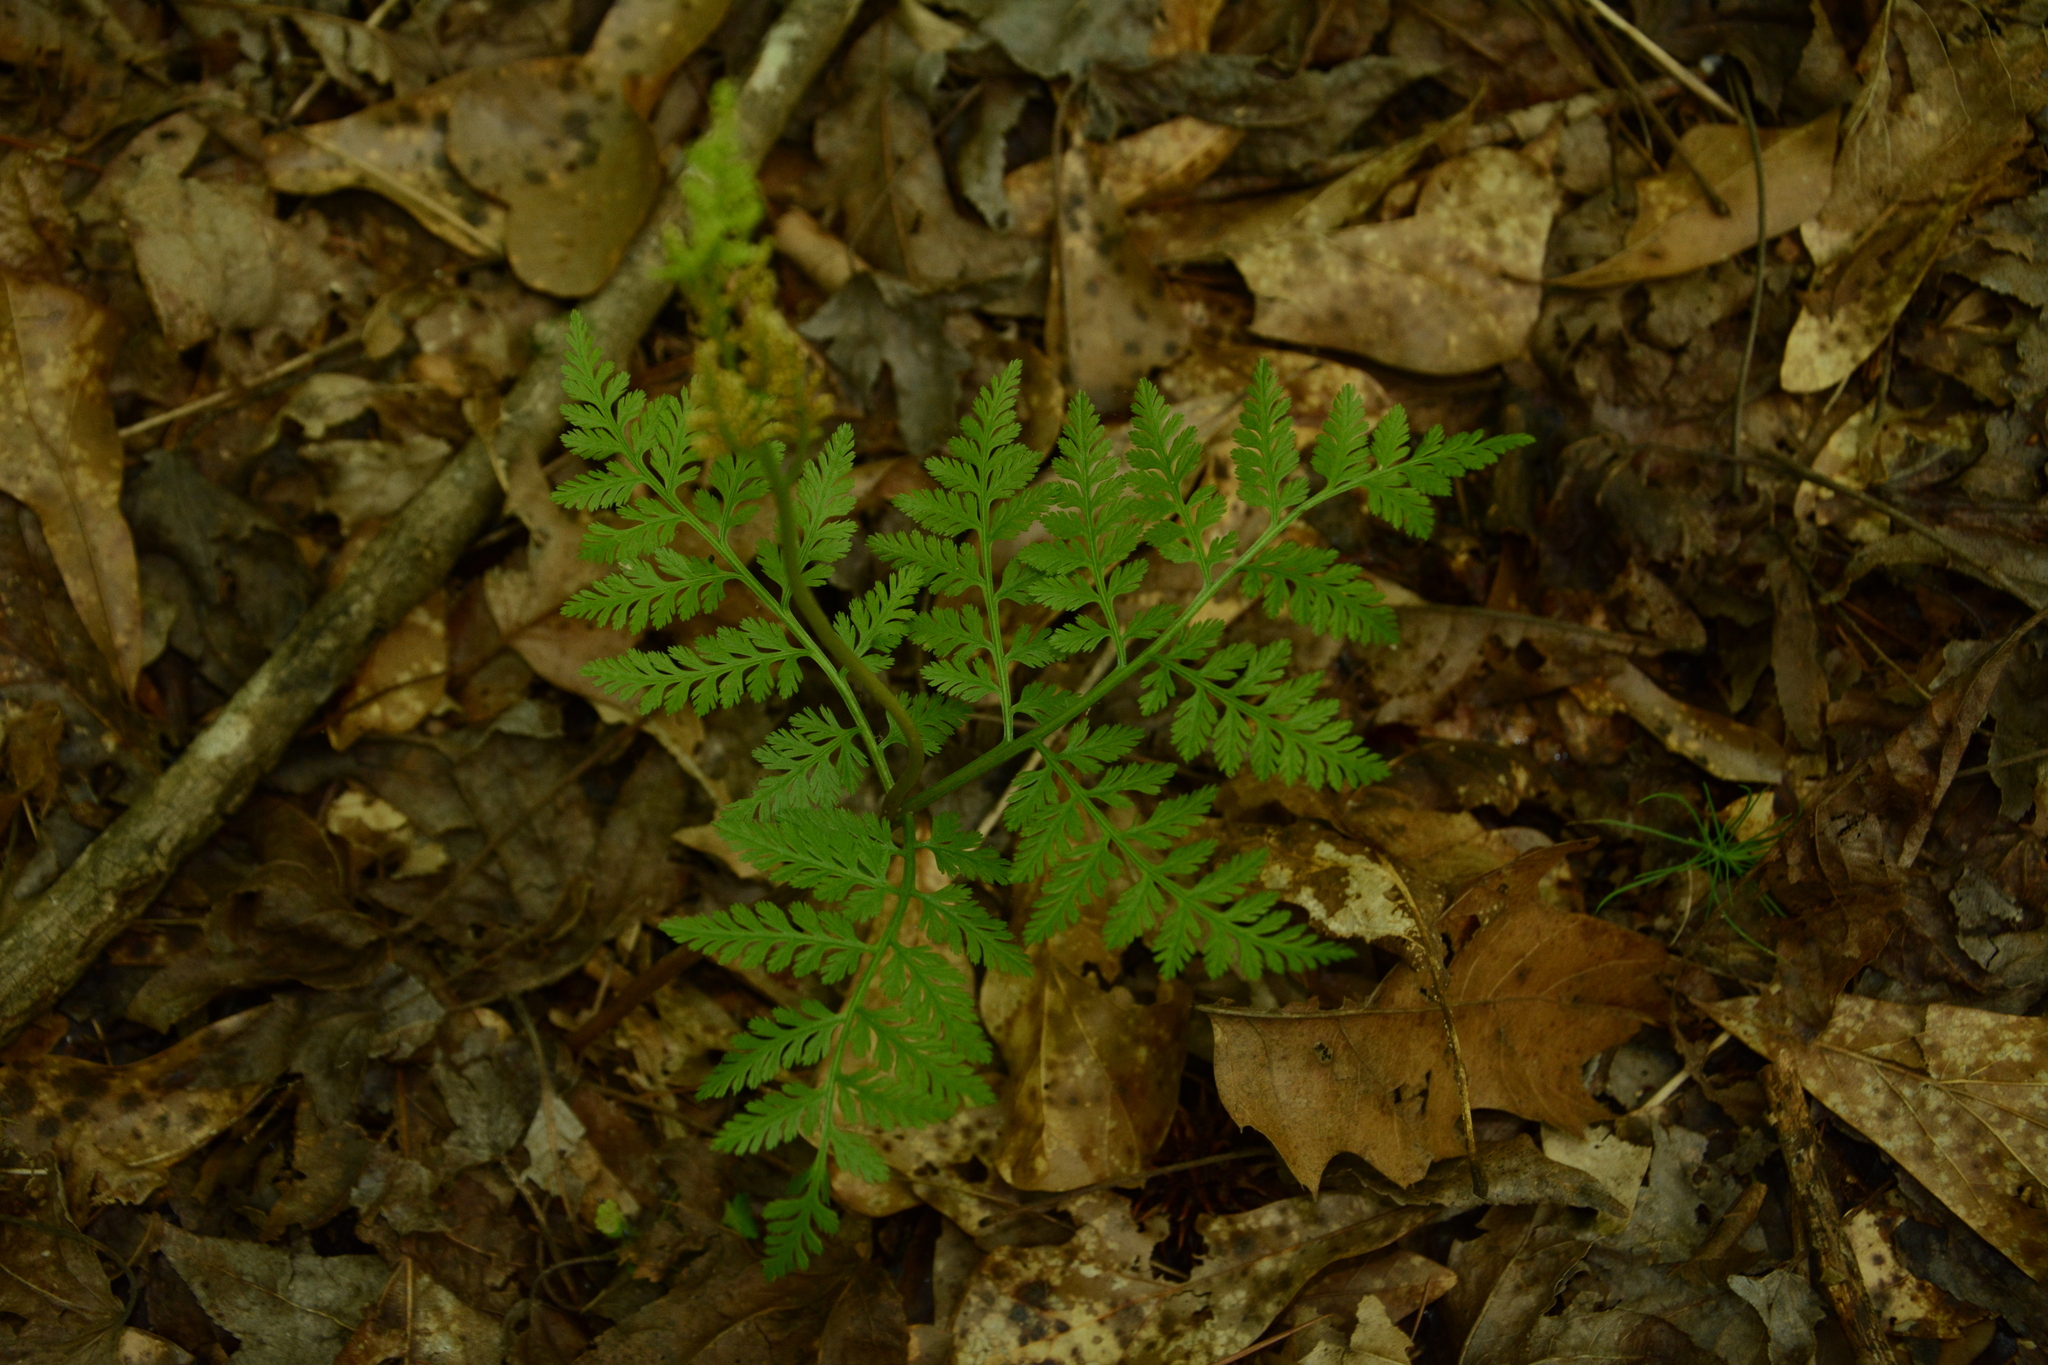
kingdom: Plantae
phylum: Tracheophyta
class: Polypodiopsida
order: Ophioglossales
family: Ophioglossaceae
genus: Botrypus
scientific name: Botrypus virginianus
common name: Common grapefern
